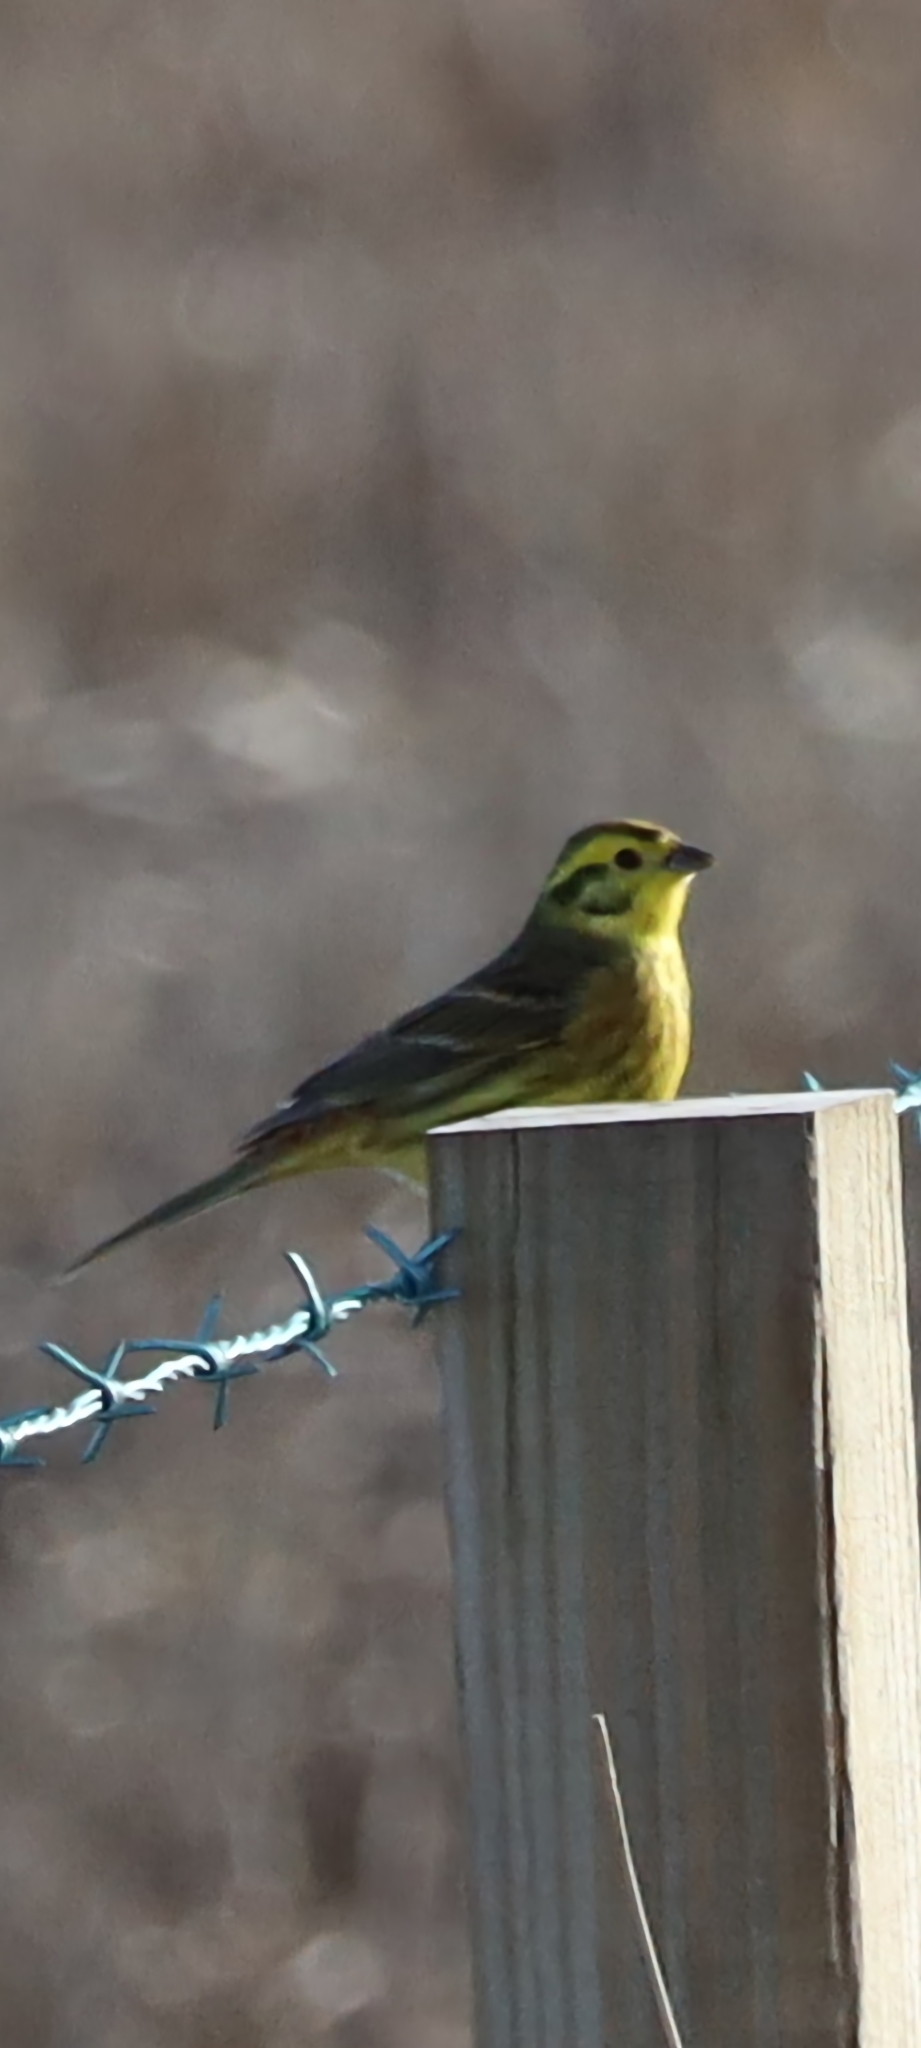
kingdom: Animalia
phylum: Chordata
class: Aves
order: Passeriformes
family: Emberizidae
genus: Emberiza
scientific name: Emberiza citrinella
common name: Yellowhammer
